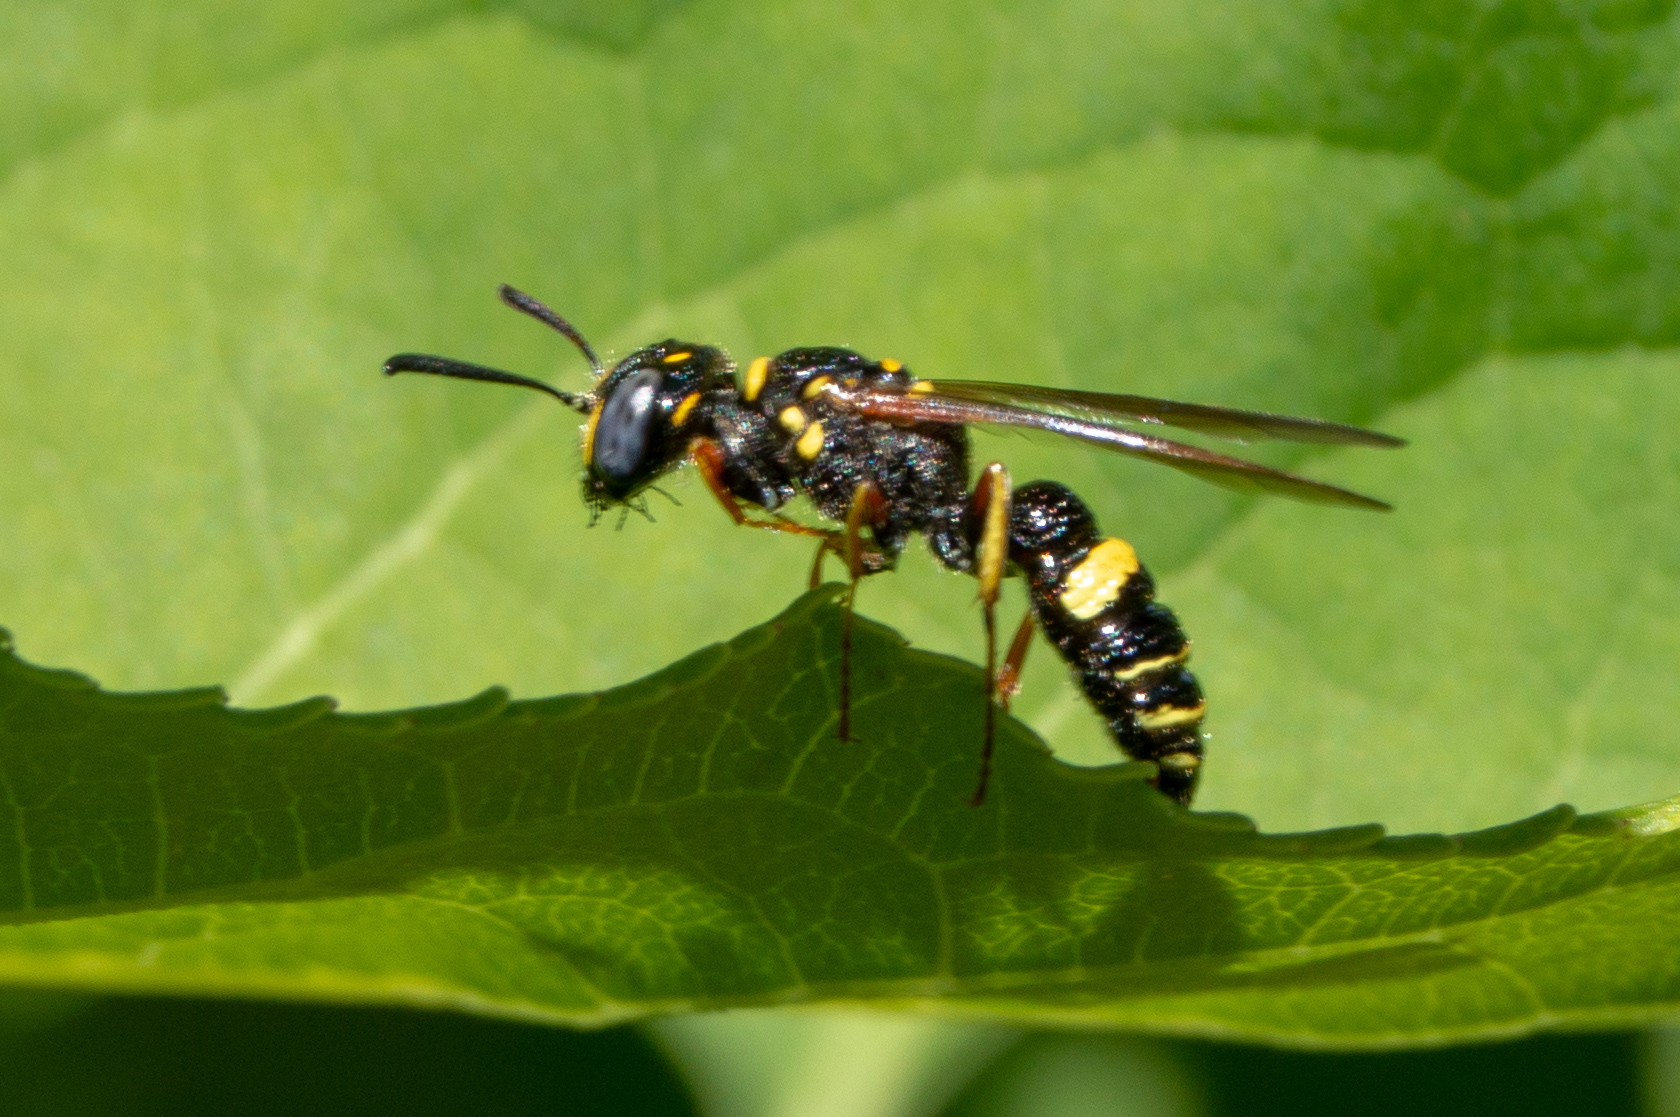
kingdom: Animalia
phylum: Arthropoda
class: Insecta
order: Hymenoptera
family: Crabronidae
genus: Philanthus
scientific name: Philanthus gibbosus
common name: Humped beewolf
